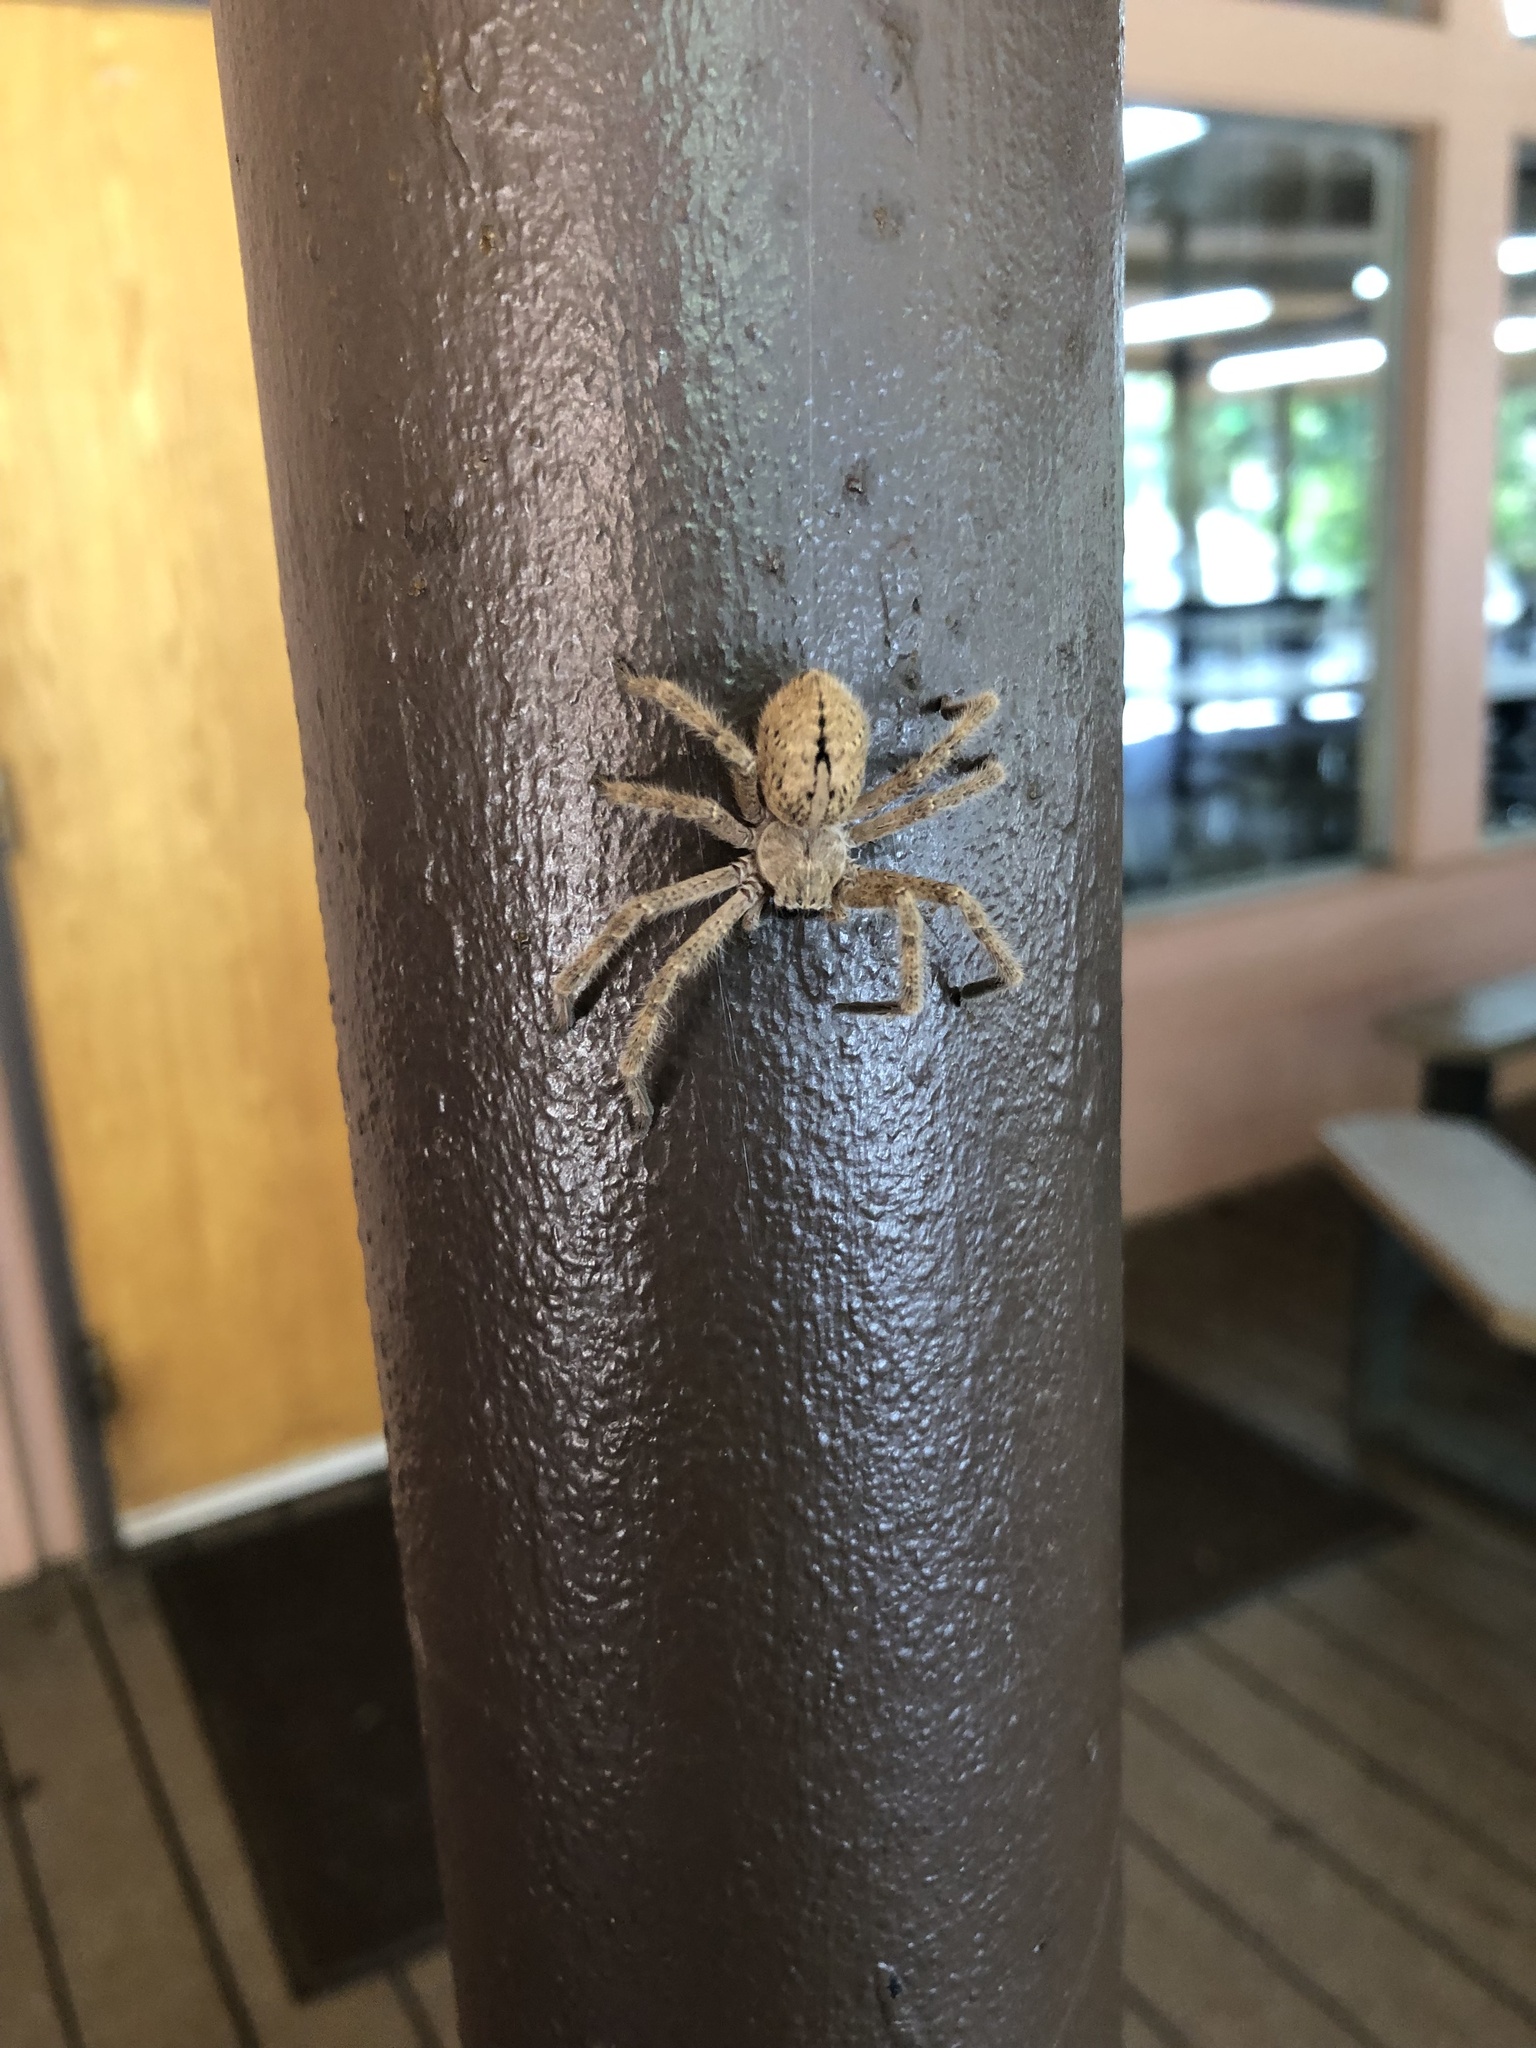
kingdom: Animalia
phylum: Arthropoda
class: Arachnida
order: Araneae
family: Sparassidae
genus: Olios
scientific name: Olios giganteus
